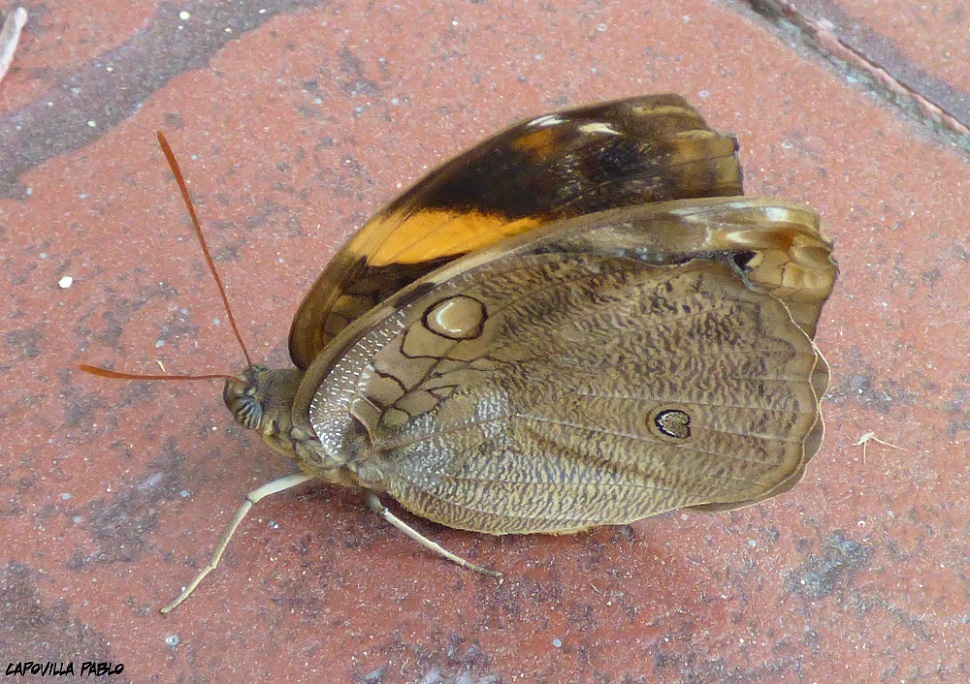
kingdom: Animalia
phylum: Arthropoda
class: Insecta
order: Lepidoptera
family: Nymphalidae
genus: Opsiphanes
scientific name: Opsiphanes invirae
